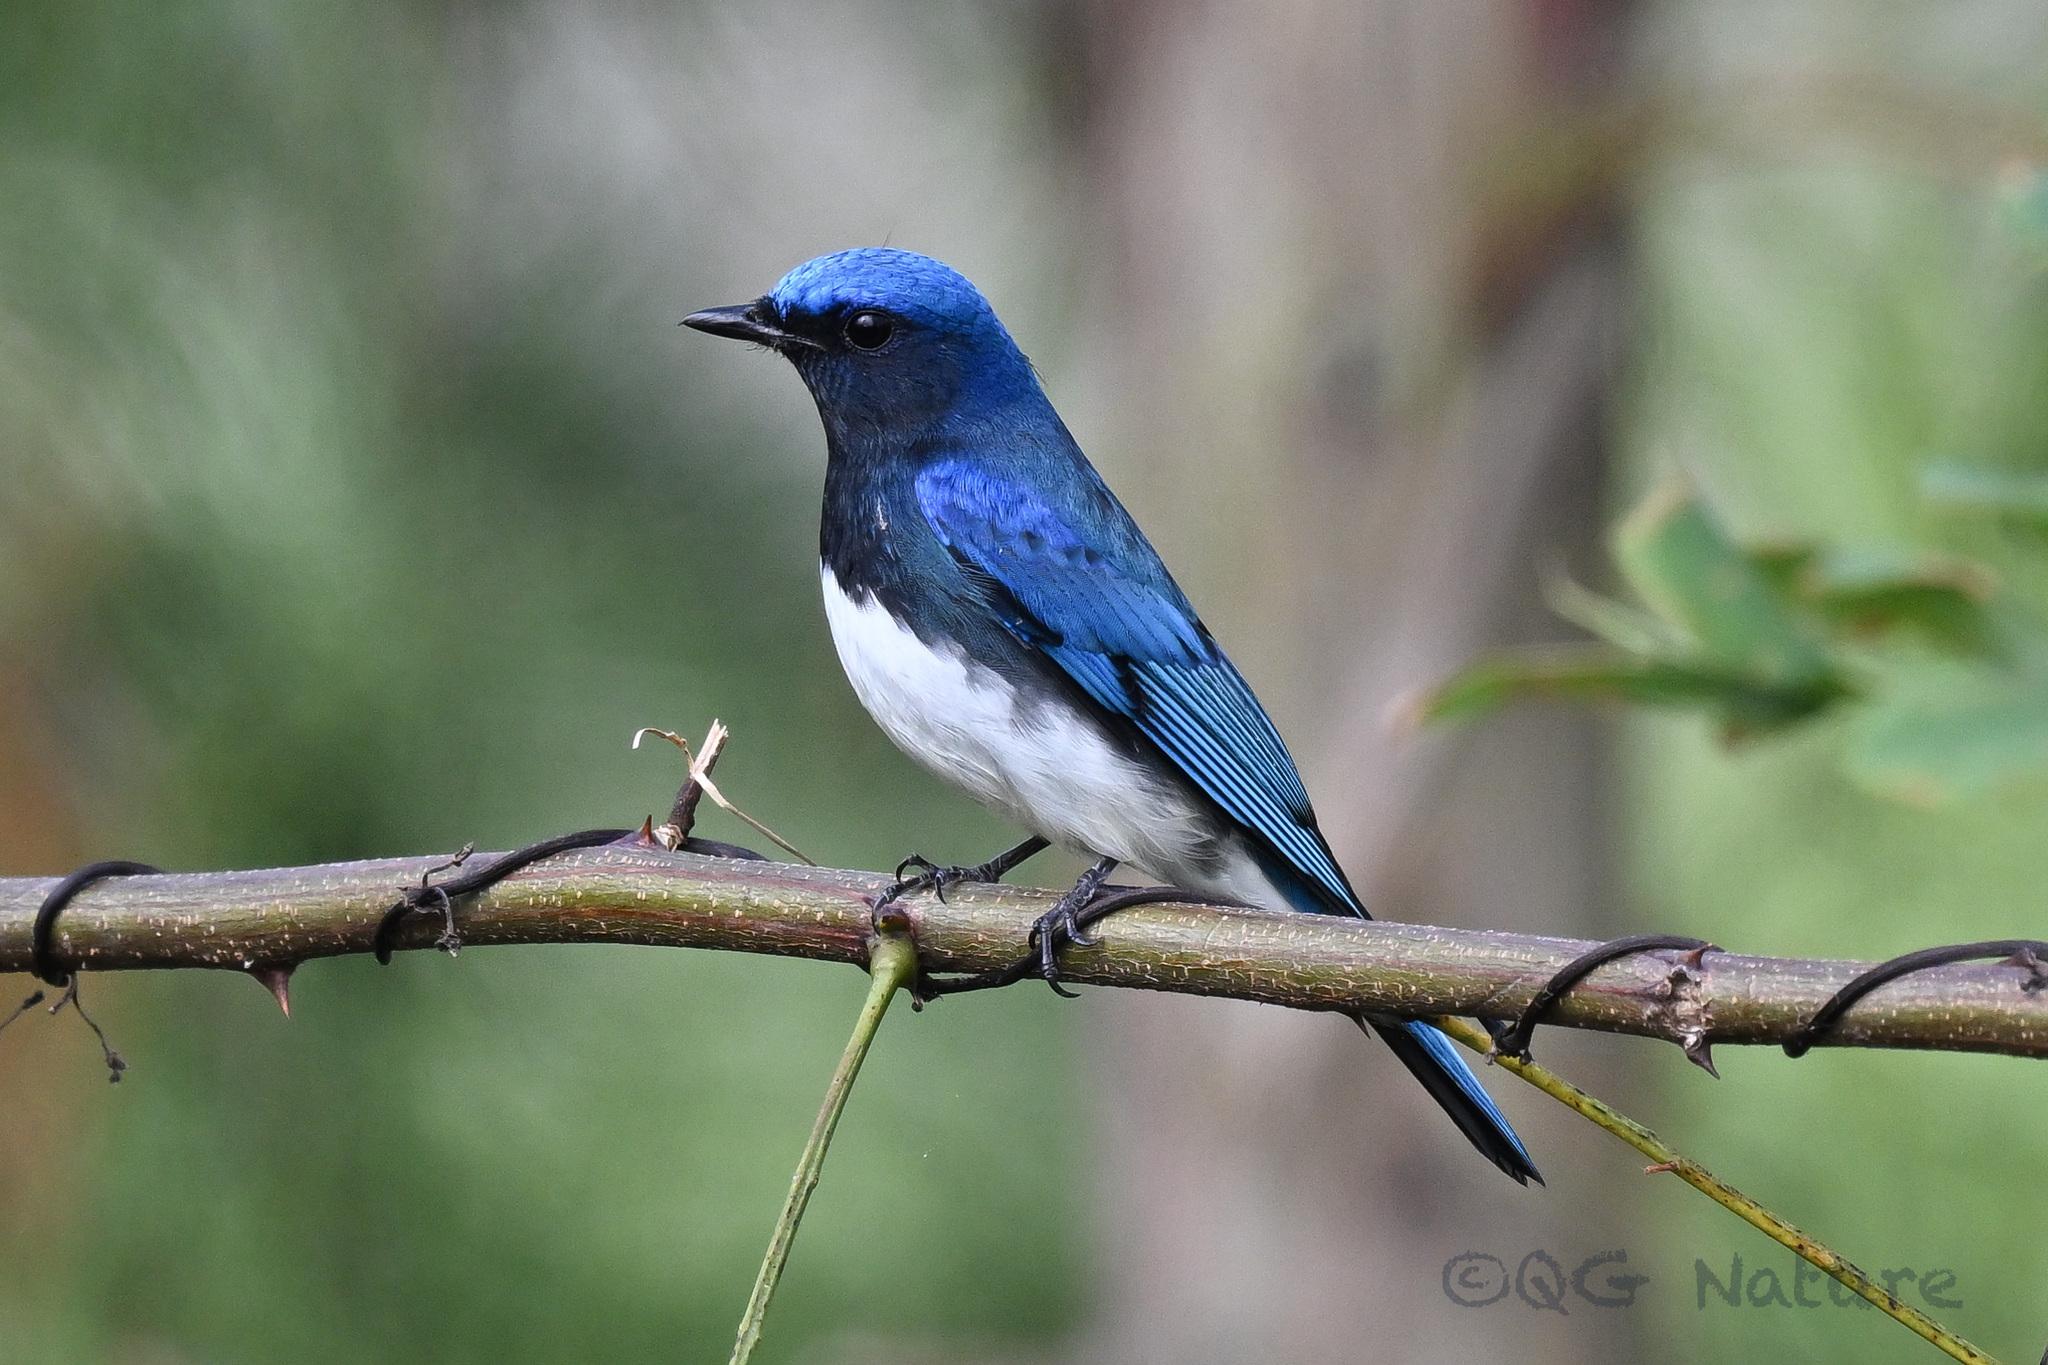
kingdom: Animalia
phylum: Chordata
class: Aves
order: Passeriformes
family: Muscicapidae
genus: Cyanoptila
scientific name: Cyanoptila cyanomelana
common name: Blue-and-white flycatcher
